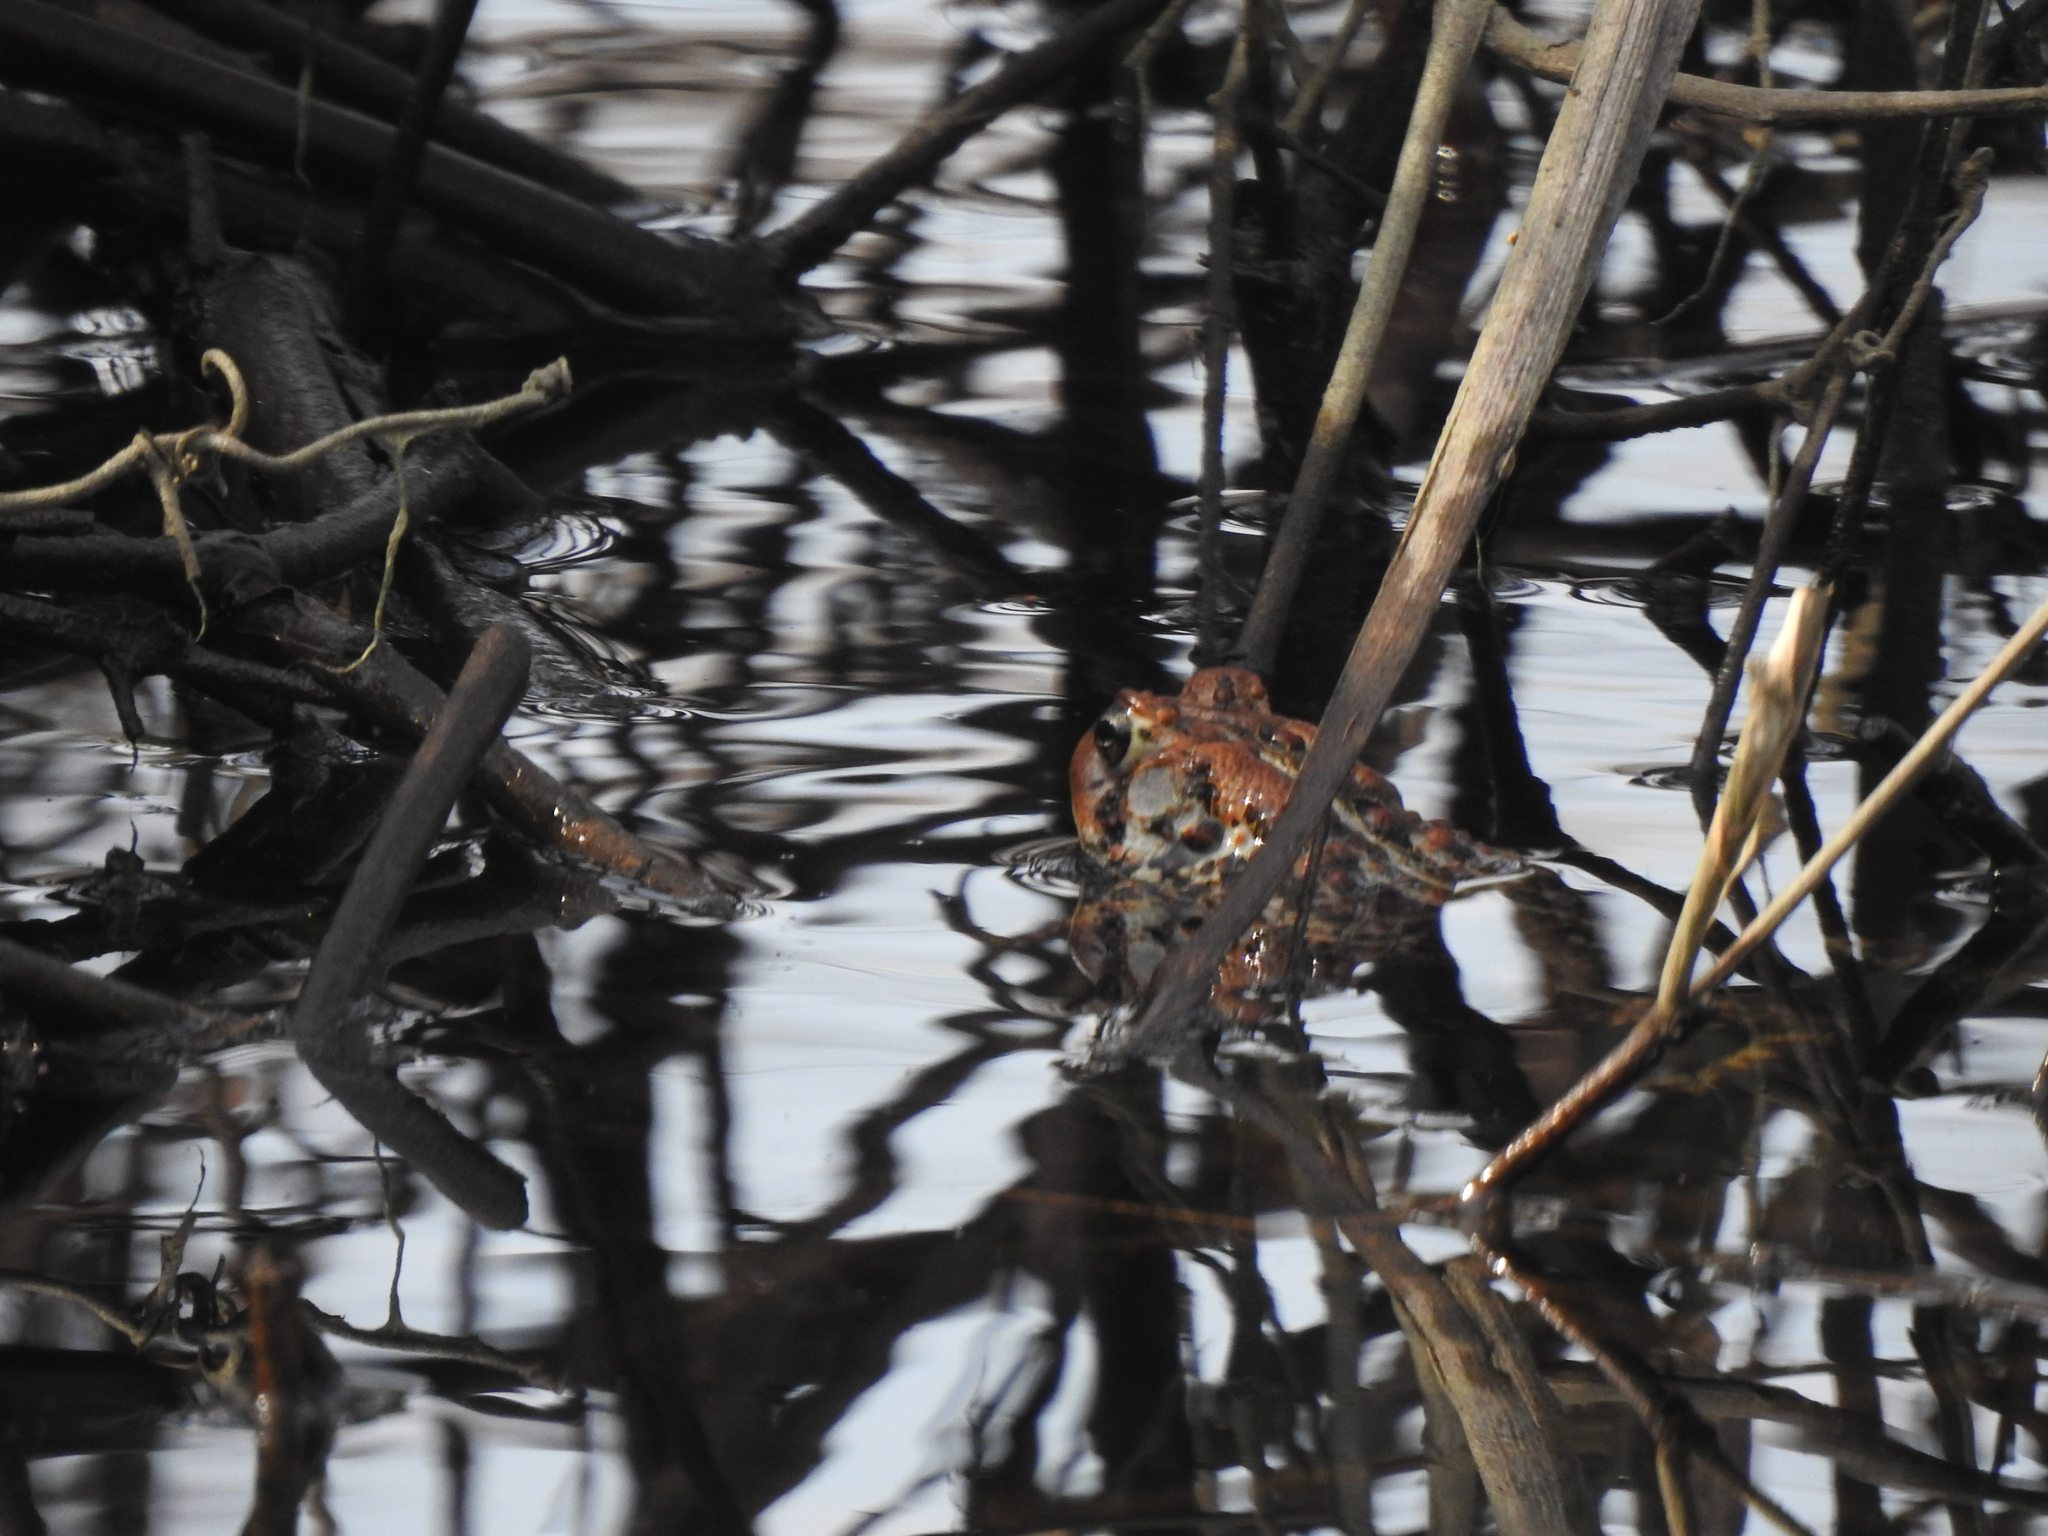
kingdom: Animalia
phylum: Chordata
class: Amphibia
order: Anura
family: Bufonidae
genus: Anaxyrus
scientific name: Anaxyrus americanus
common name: American toad
